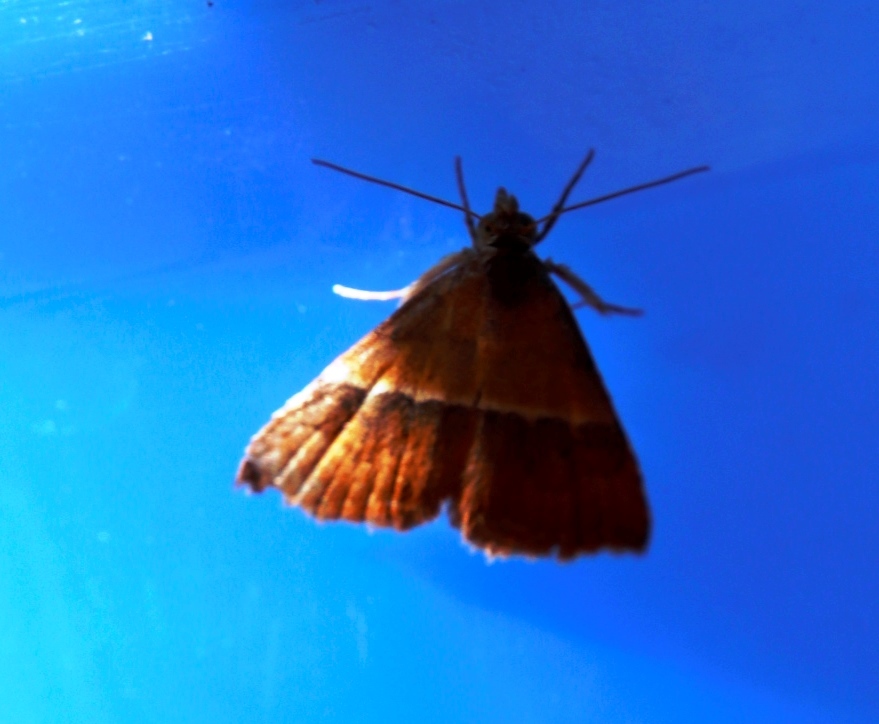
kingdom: Animalia
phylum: Arthropoda
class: Insecta
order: Lepidoptera
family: Noctuidae
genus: Eublemma
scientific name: Eublemma caffrorum
